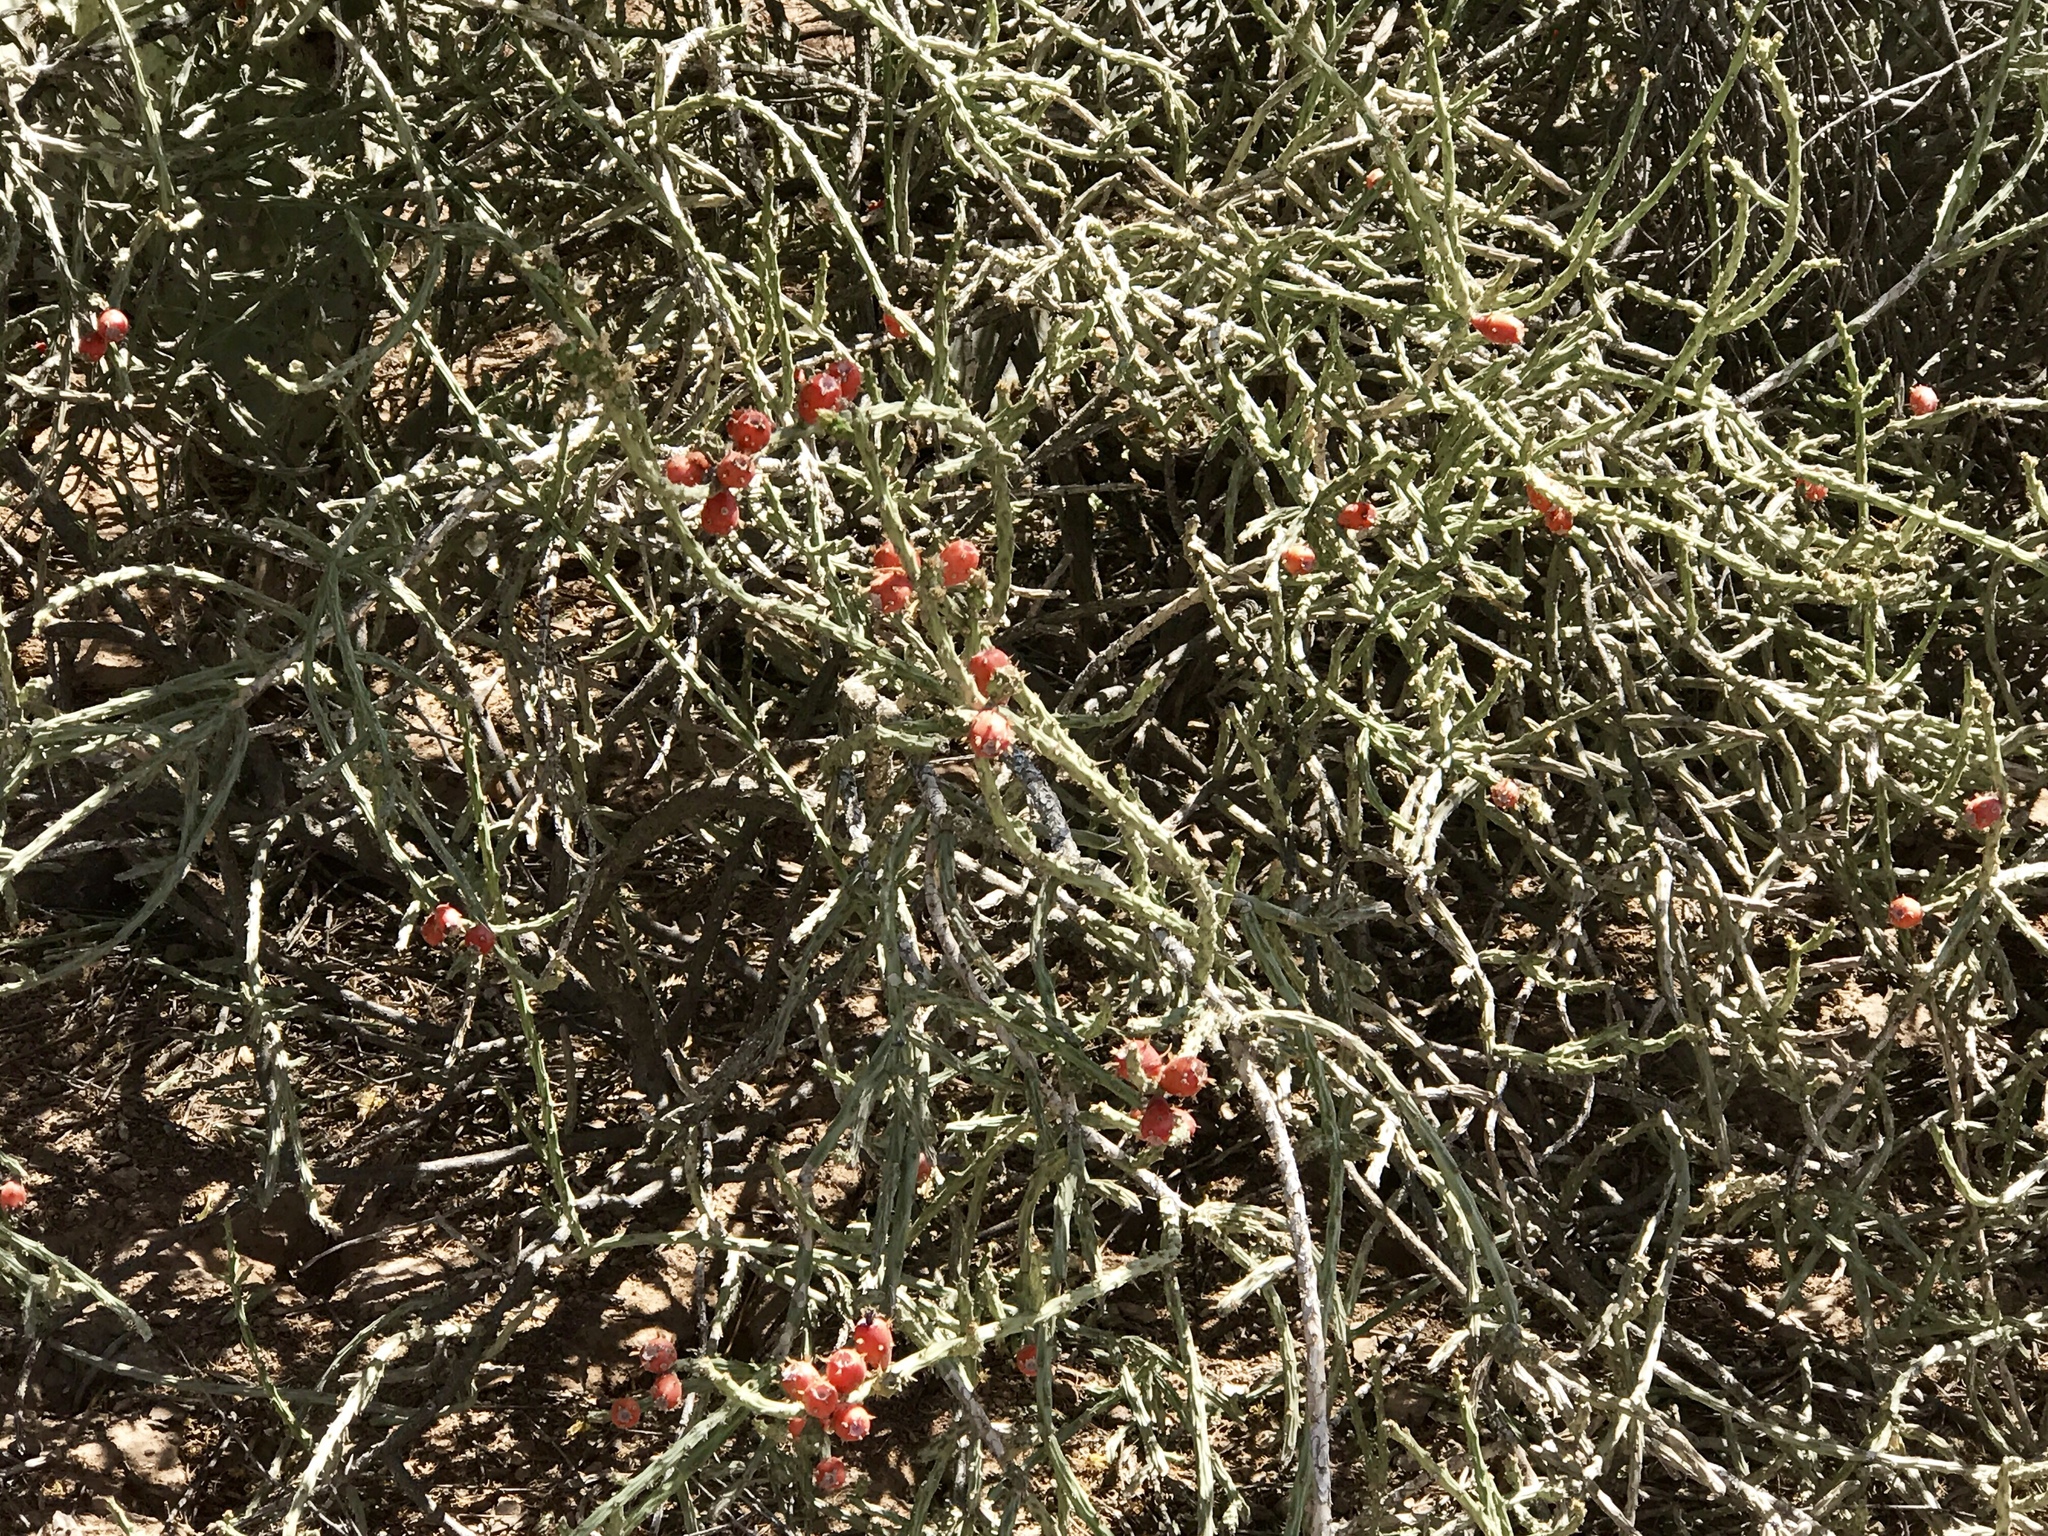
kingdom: Plantae
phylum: Tracheophyta
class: Magnoliopsida
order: Caryophyllales
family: Cactaceae
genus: Cylindropuntia
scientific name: Cylindropuntia leptocaulis
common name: Christmas cactus
